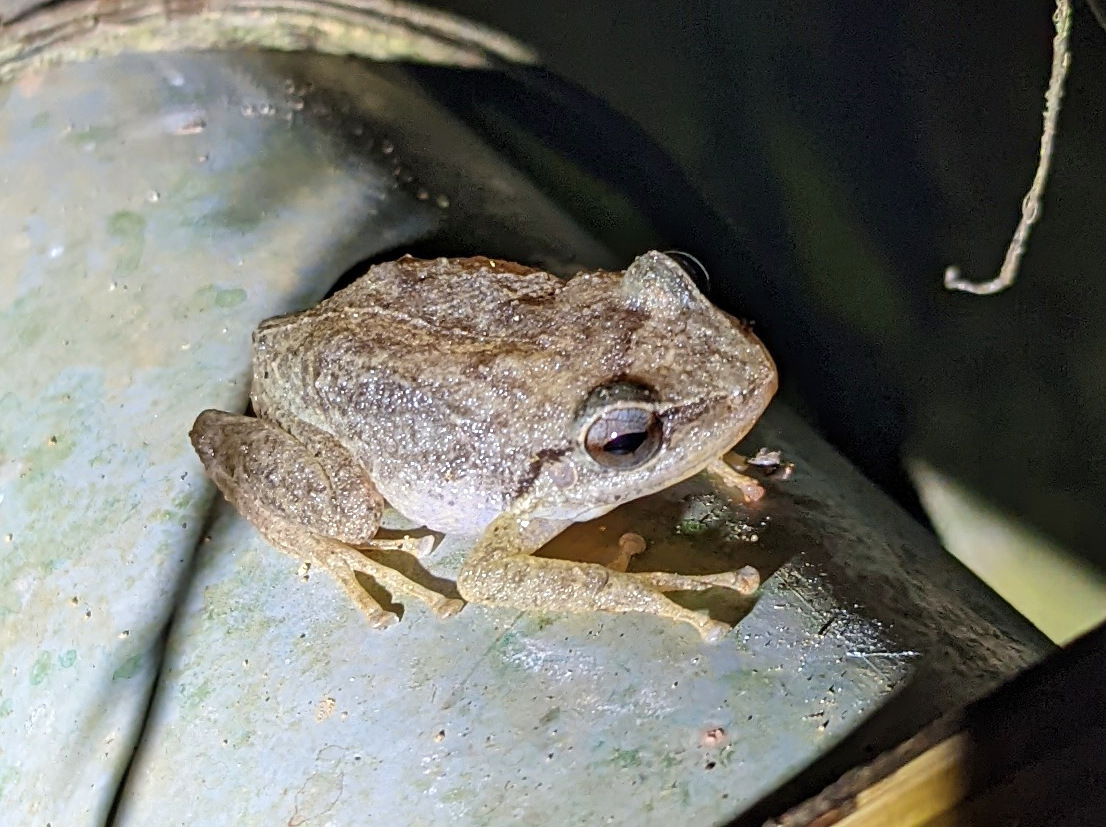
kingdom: Animalia
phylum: Chordata
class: Amphibia
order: Anura
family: Eleutherodactylidae
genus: Eleutherodactylus
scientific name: Eleutherodactylus coqui
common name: Coqui frog
